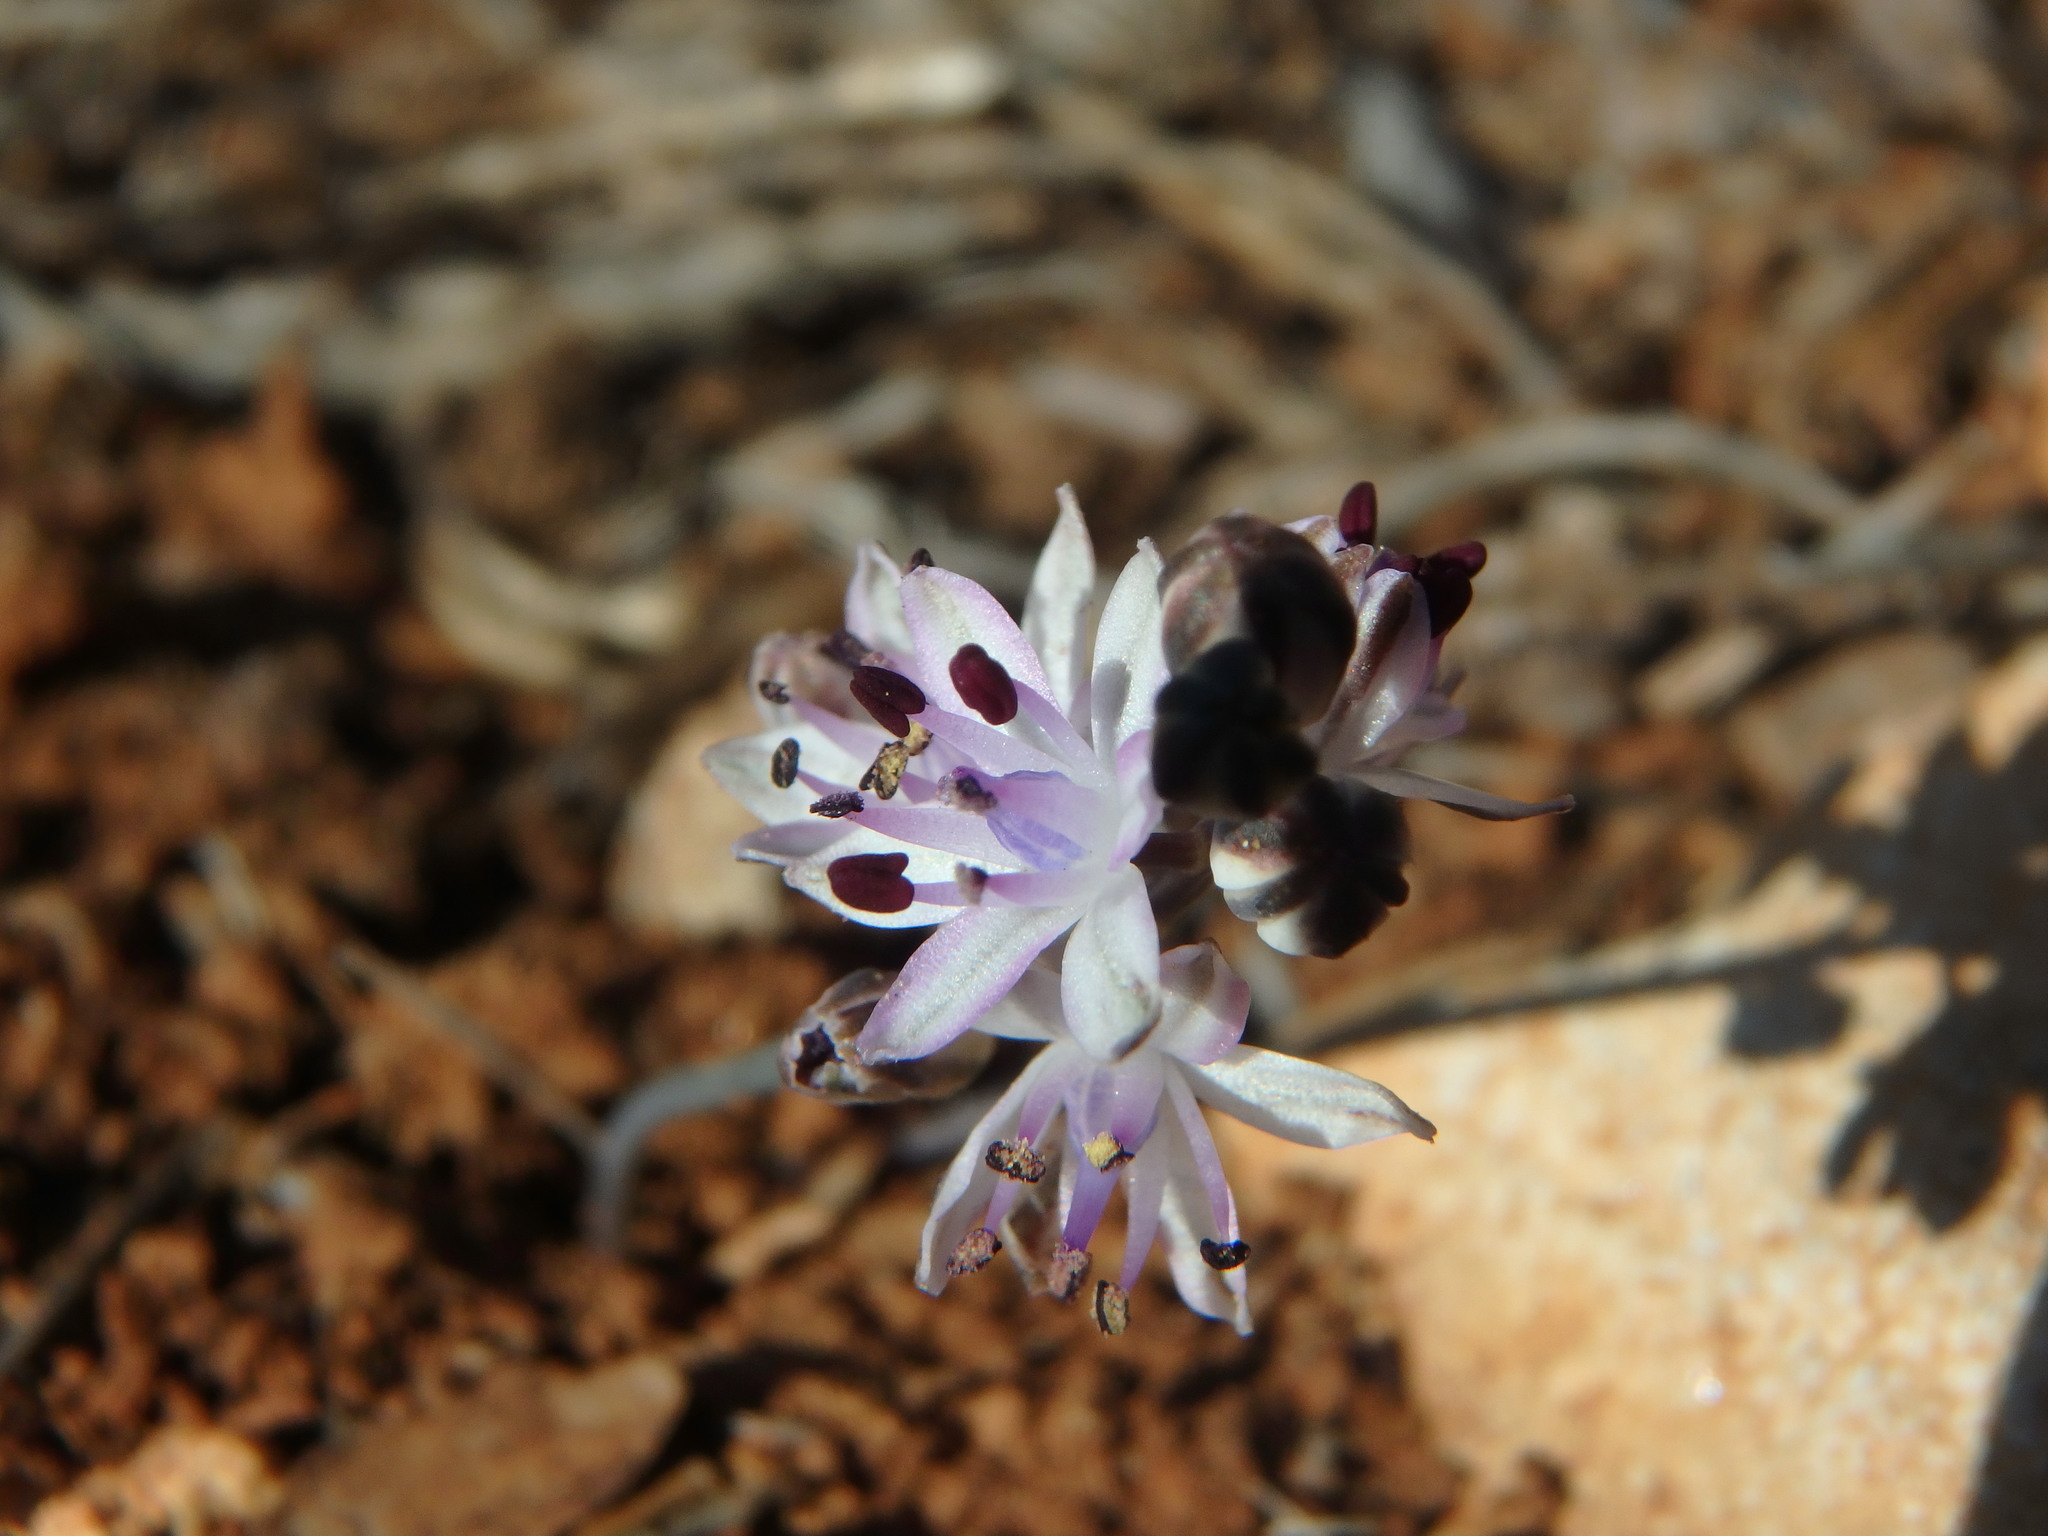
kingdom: Plantae
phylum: Tracheophyta
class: Liliopsida
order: Asparagales
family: Asparagaceae
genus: Prospero
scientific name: Prospero autumnale
